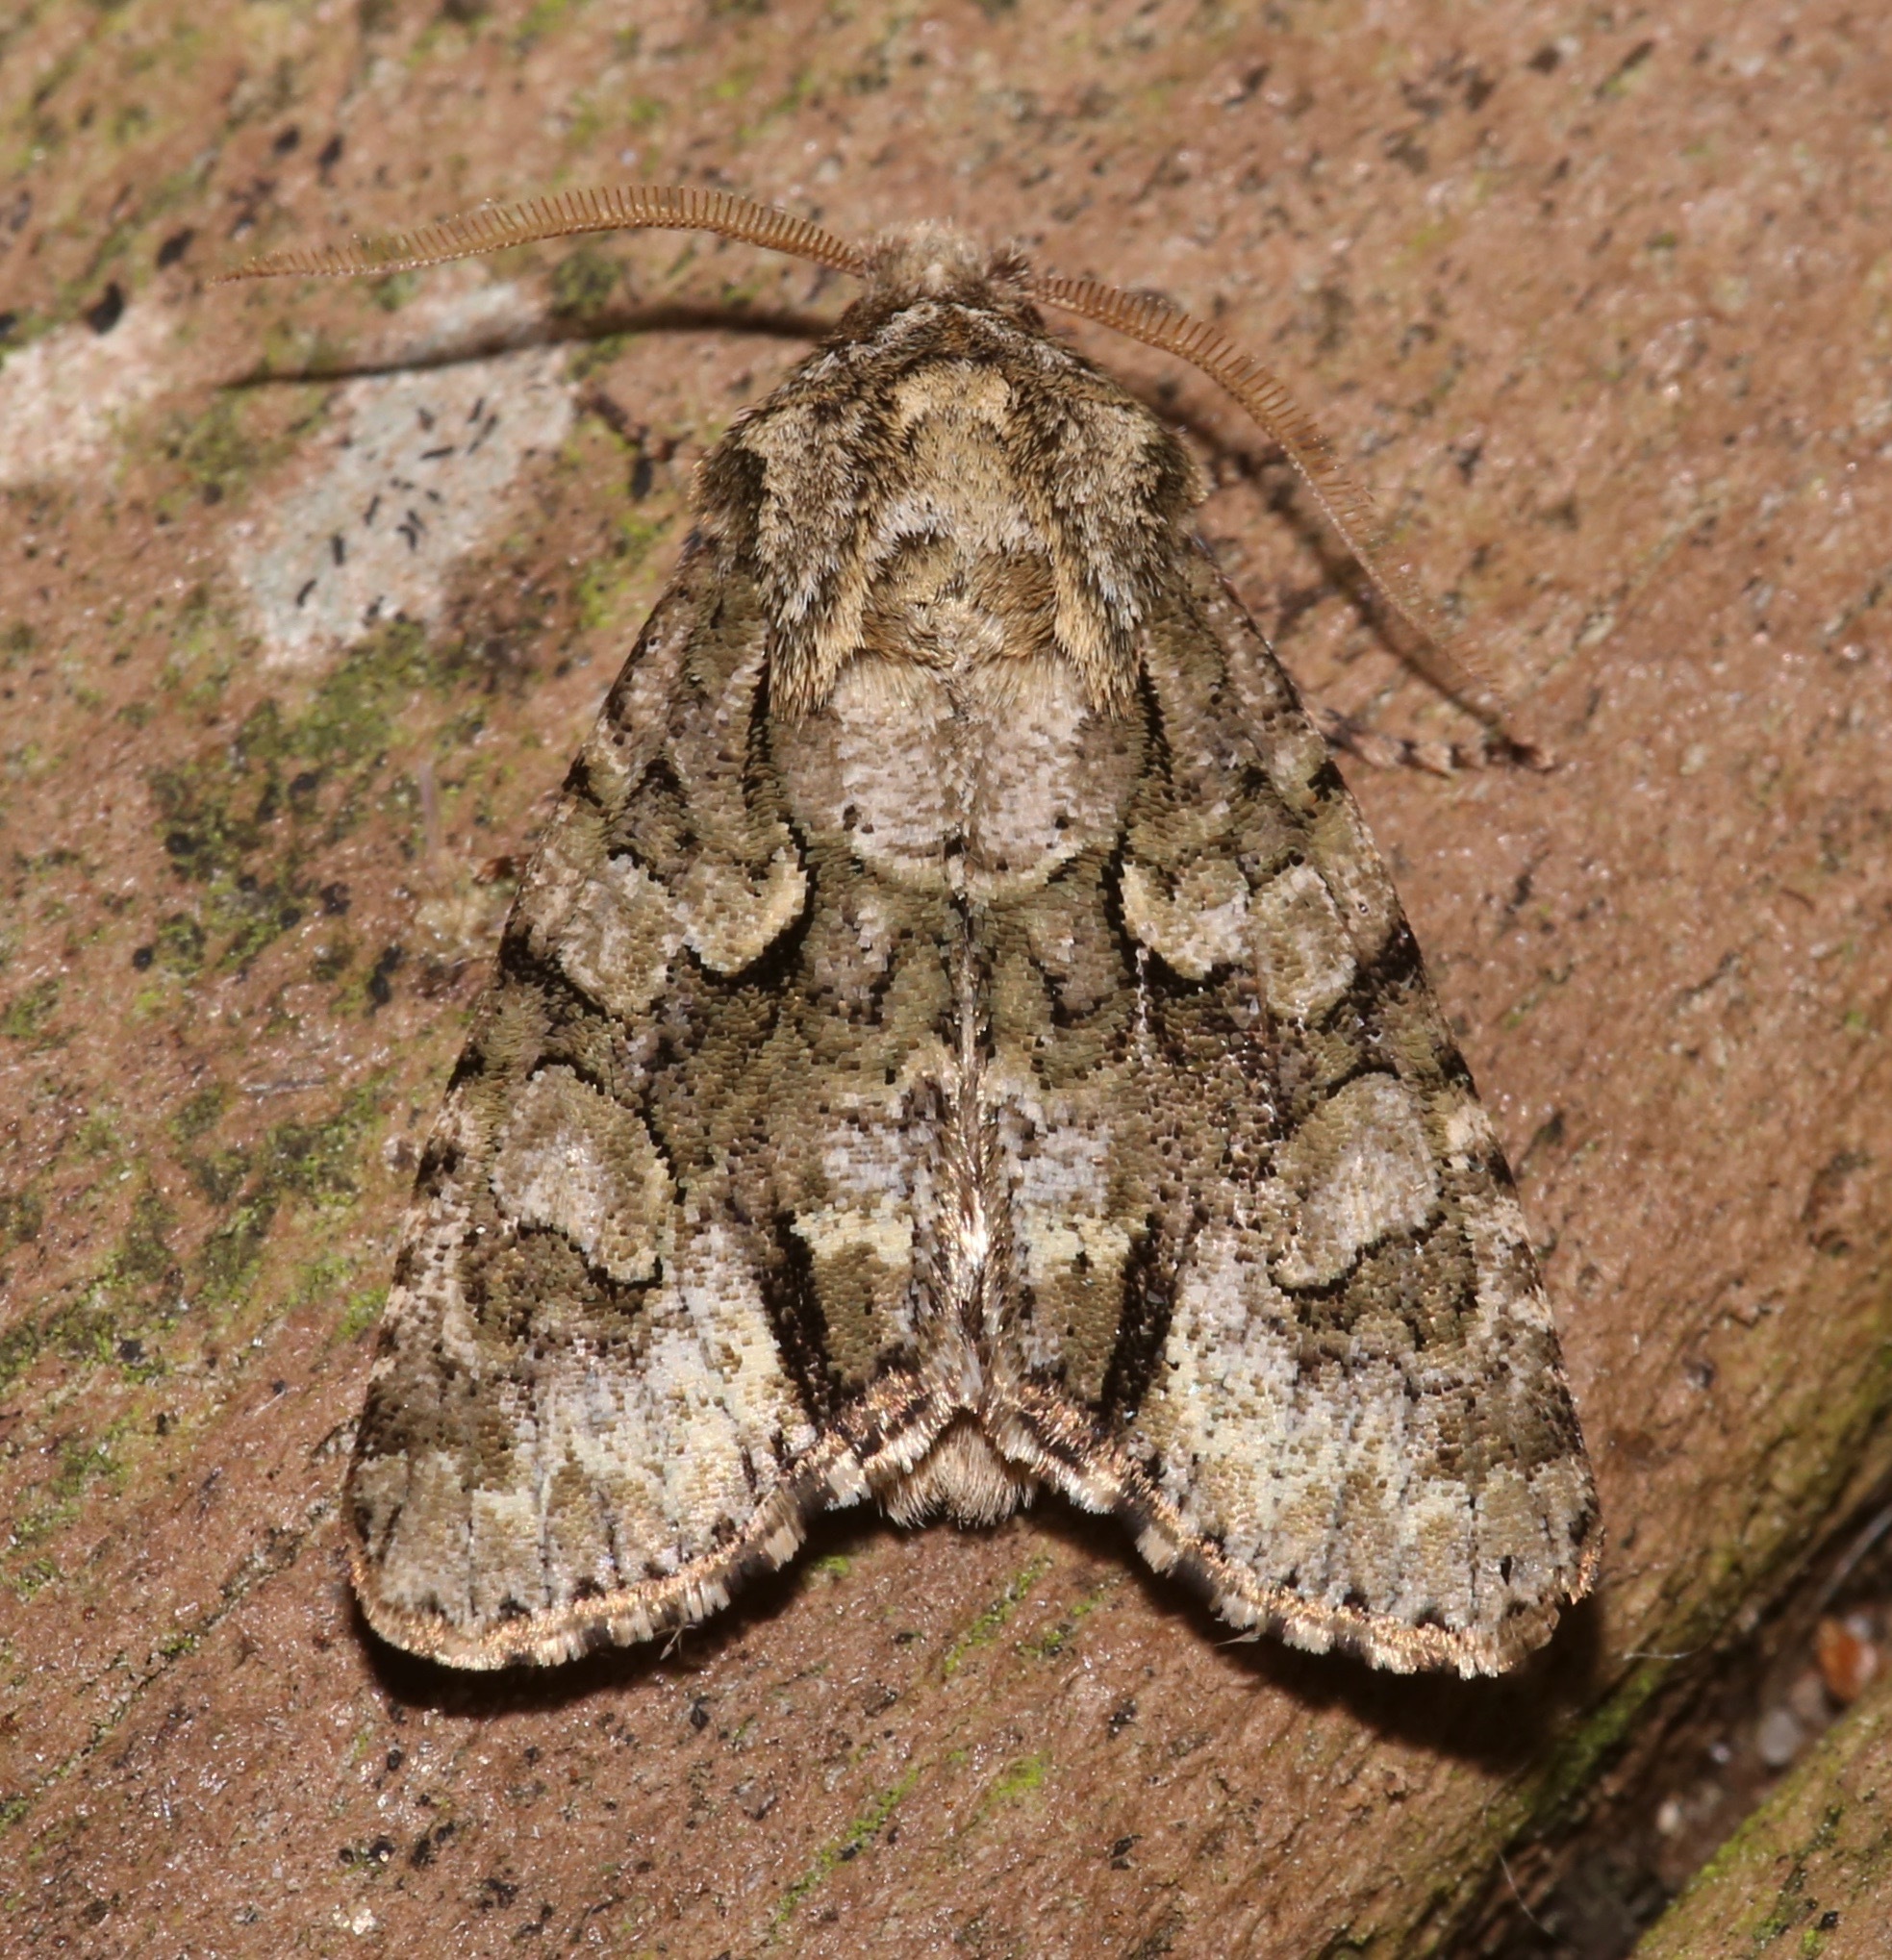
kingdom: Animalia
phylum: Arthropoda
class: Insecta
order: Lepidoptera
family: Noctuidae
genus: Psaphida
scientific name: Psaphida resumens
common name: Figure-eight sallow
